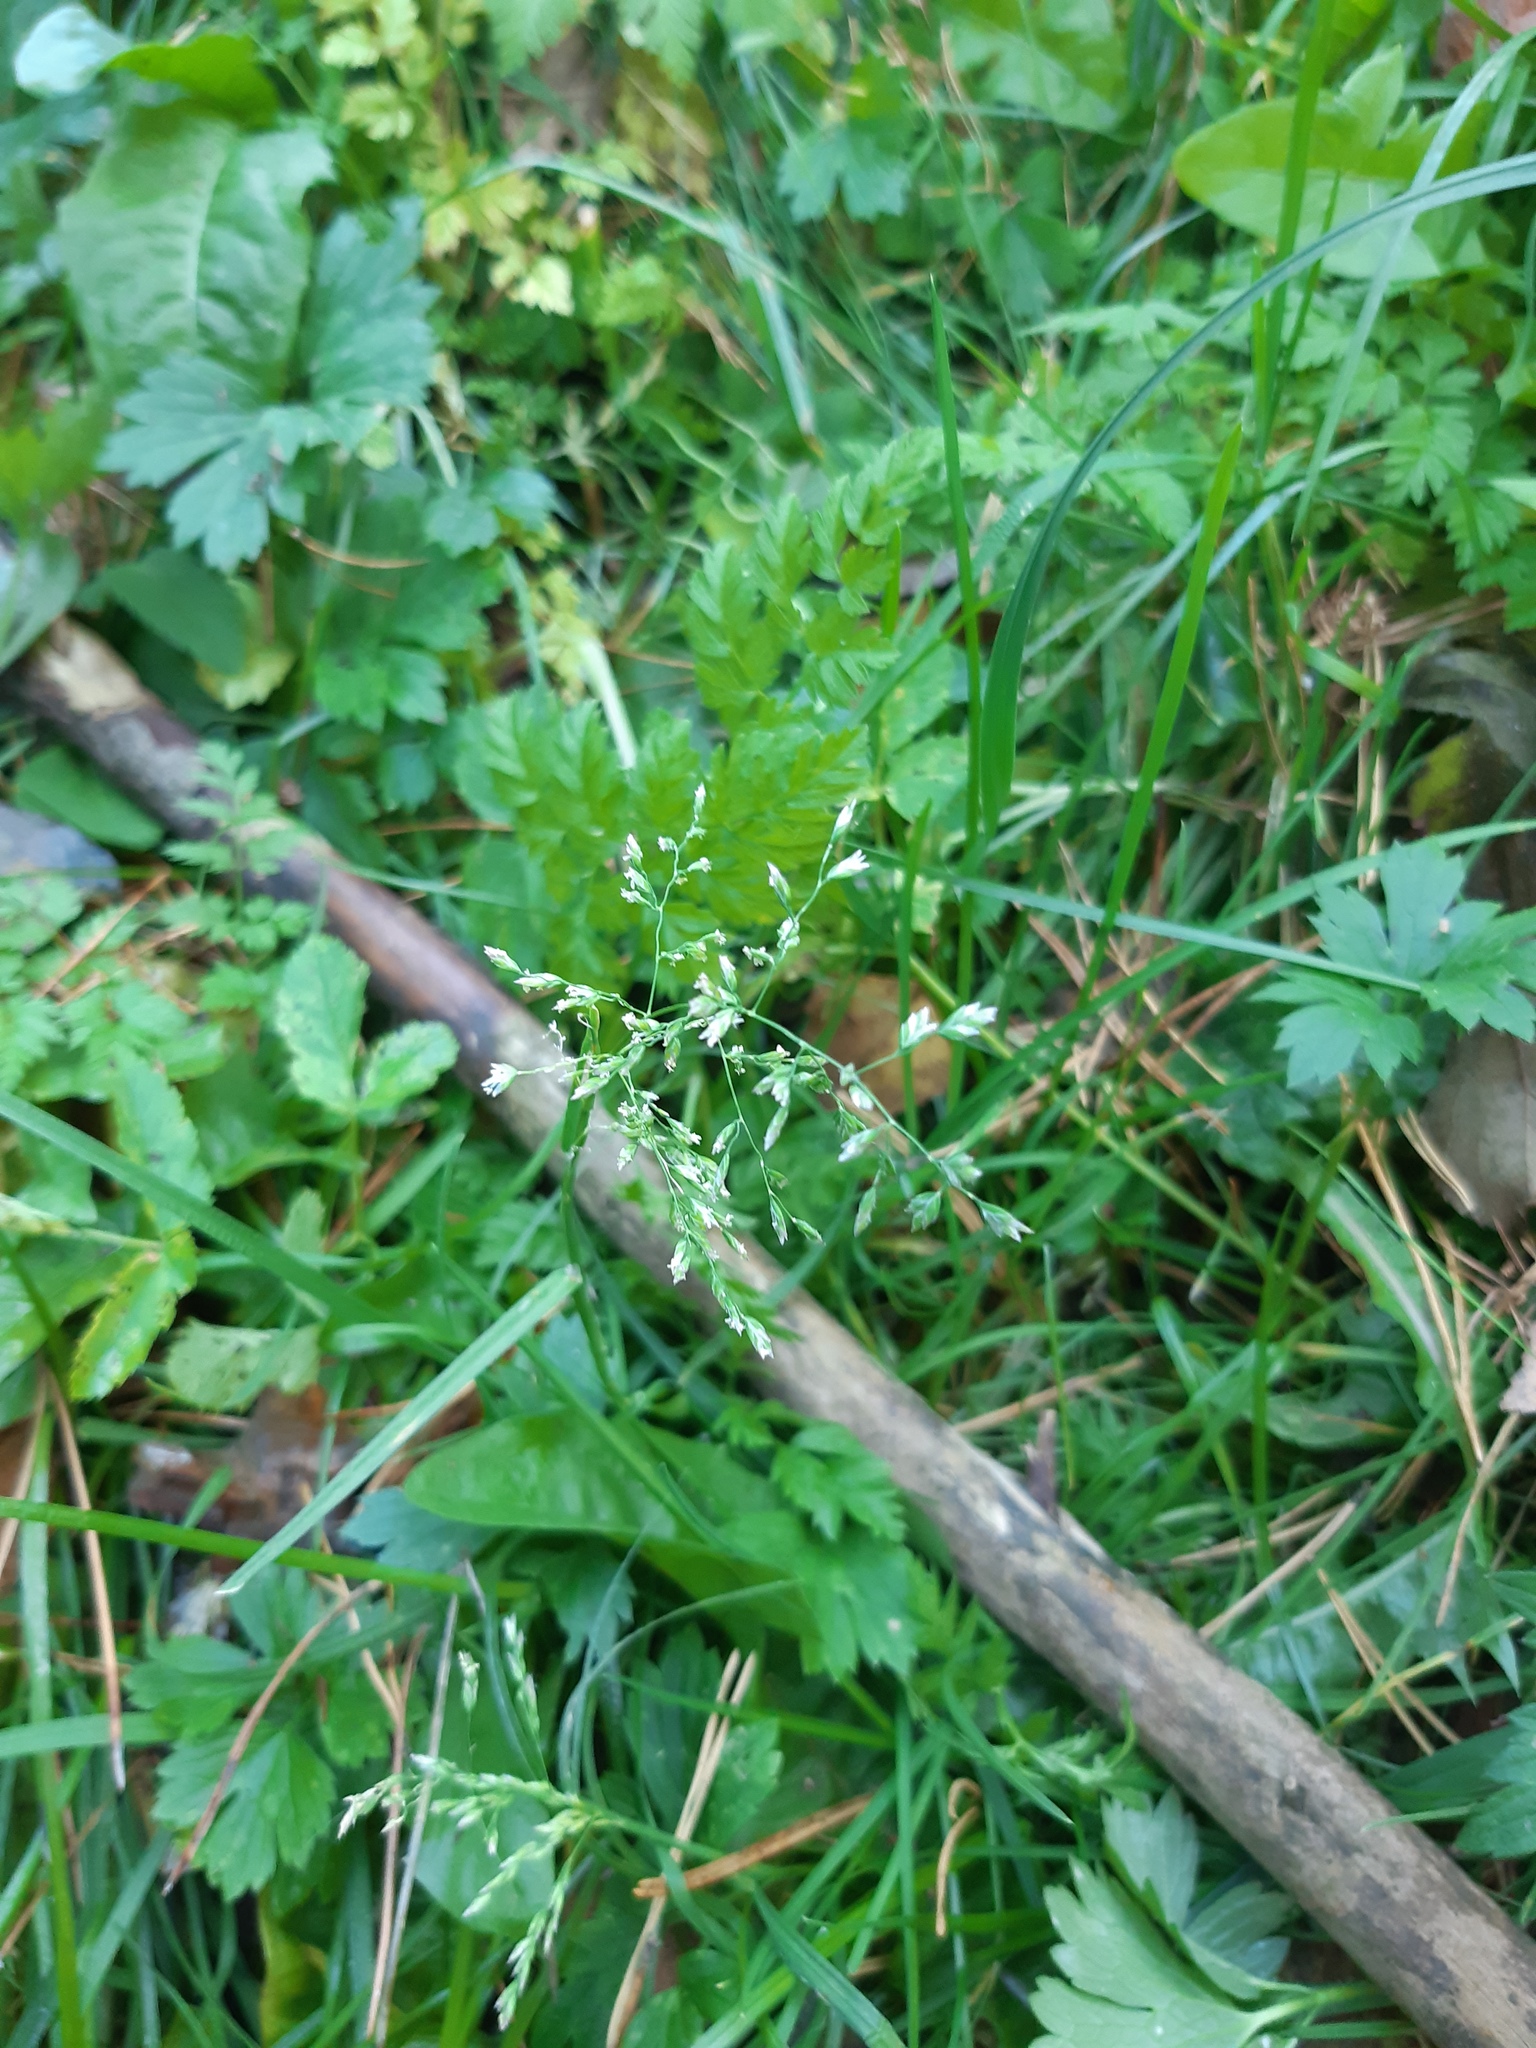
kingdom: Plantae
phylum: Tracheophyta
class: Liliopsida
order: Poales
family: Poaceae
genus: Poa
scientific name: Poa annua
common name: Annual bluegrass
